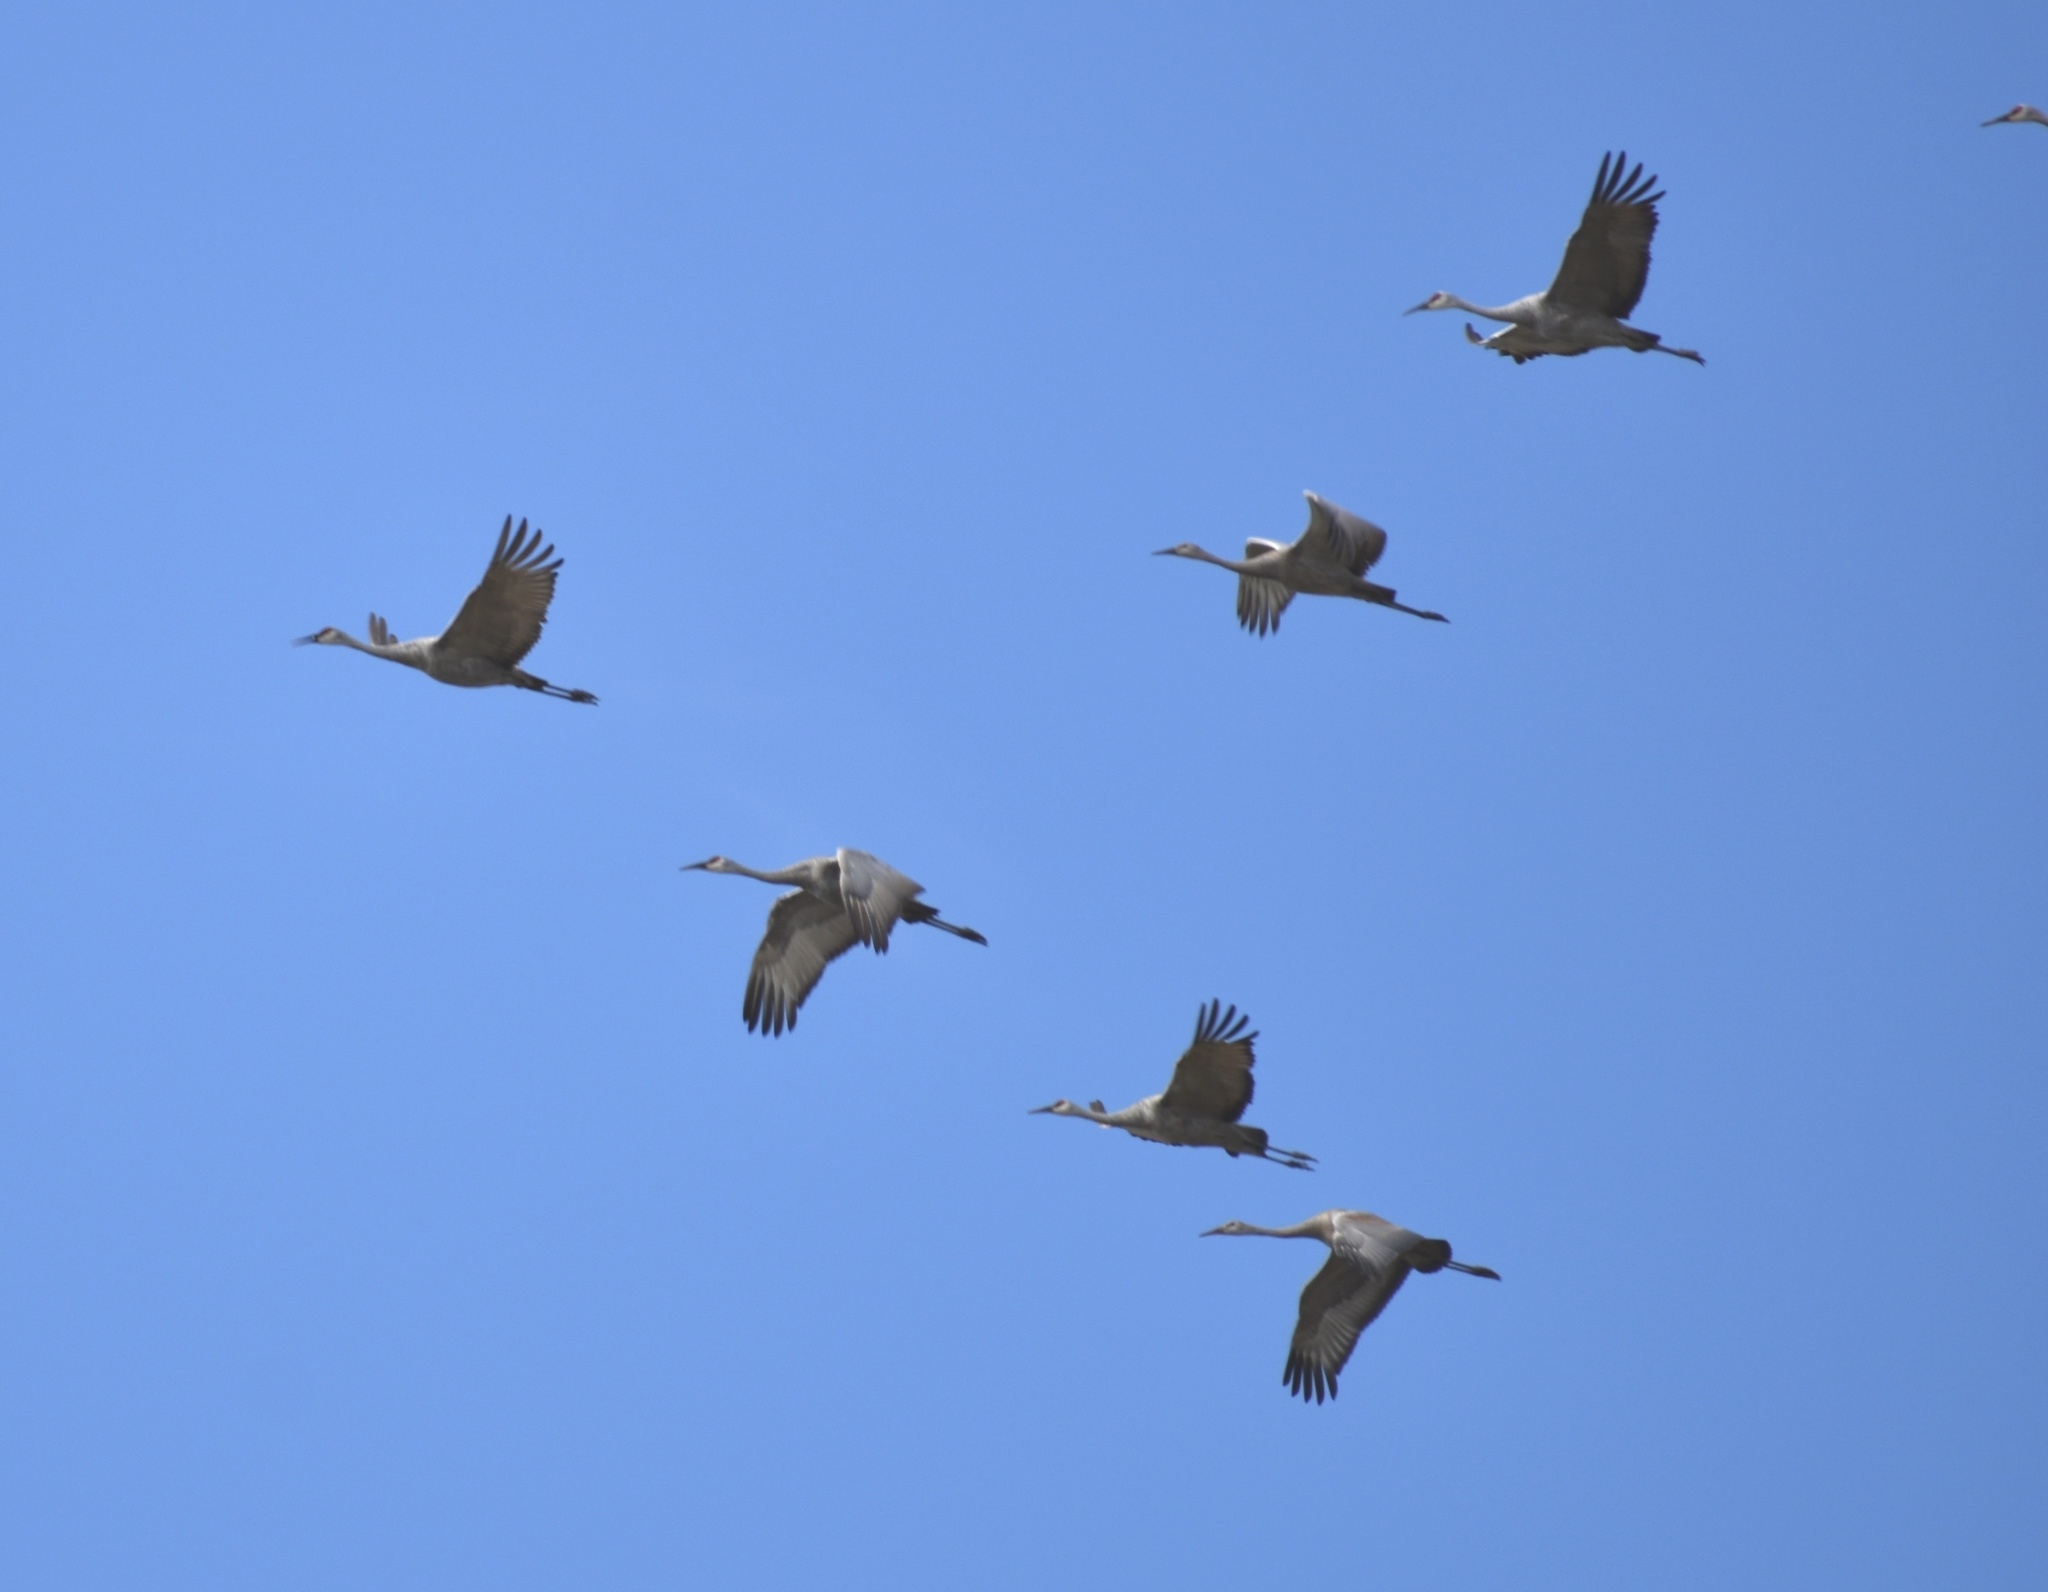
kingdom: Animalia
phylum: Chordata
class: Aves
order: Gruiformes
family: Gruidae
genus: Grus
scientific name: Grus canadensis
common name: Sandhill crane
